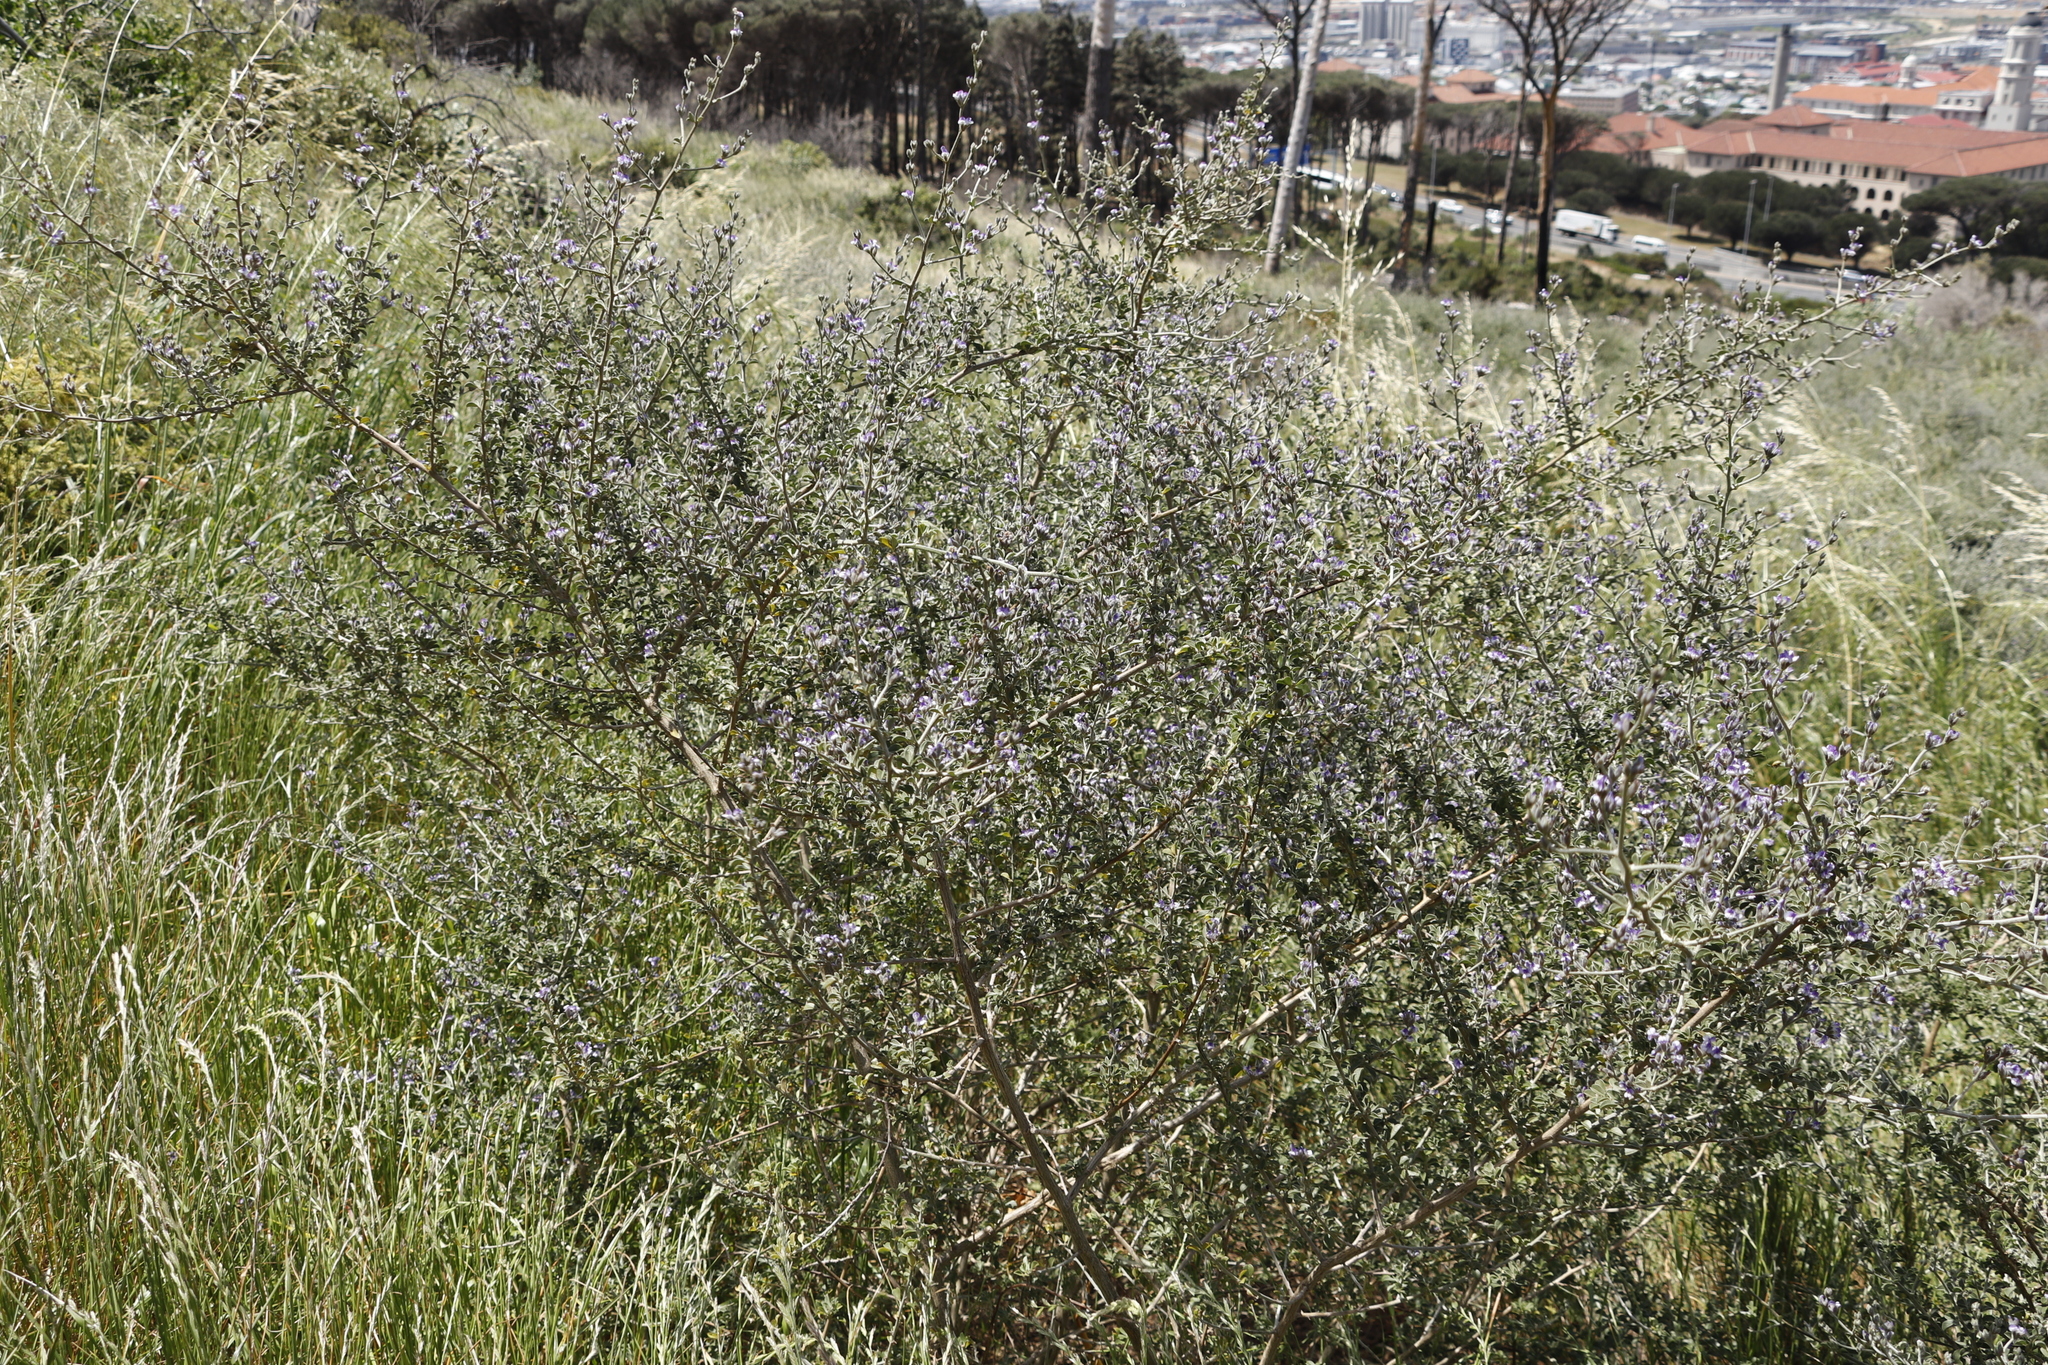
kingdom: Plantae
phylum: Tracheophyta
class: Magnoliopsida
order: Fabales
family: Fabaceae
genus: Psoralea
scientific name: Psoralea hirta
